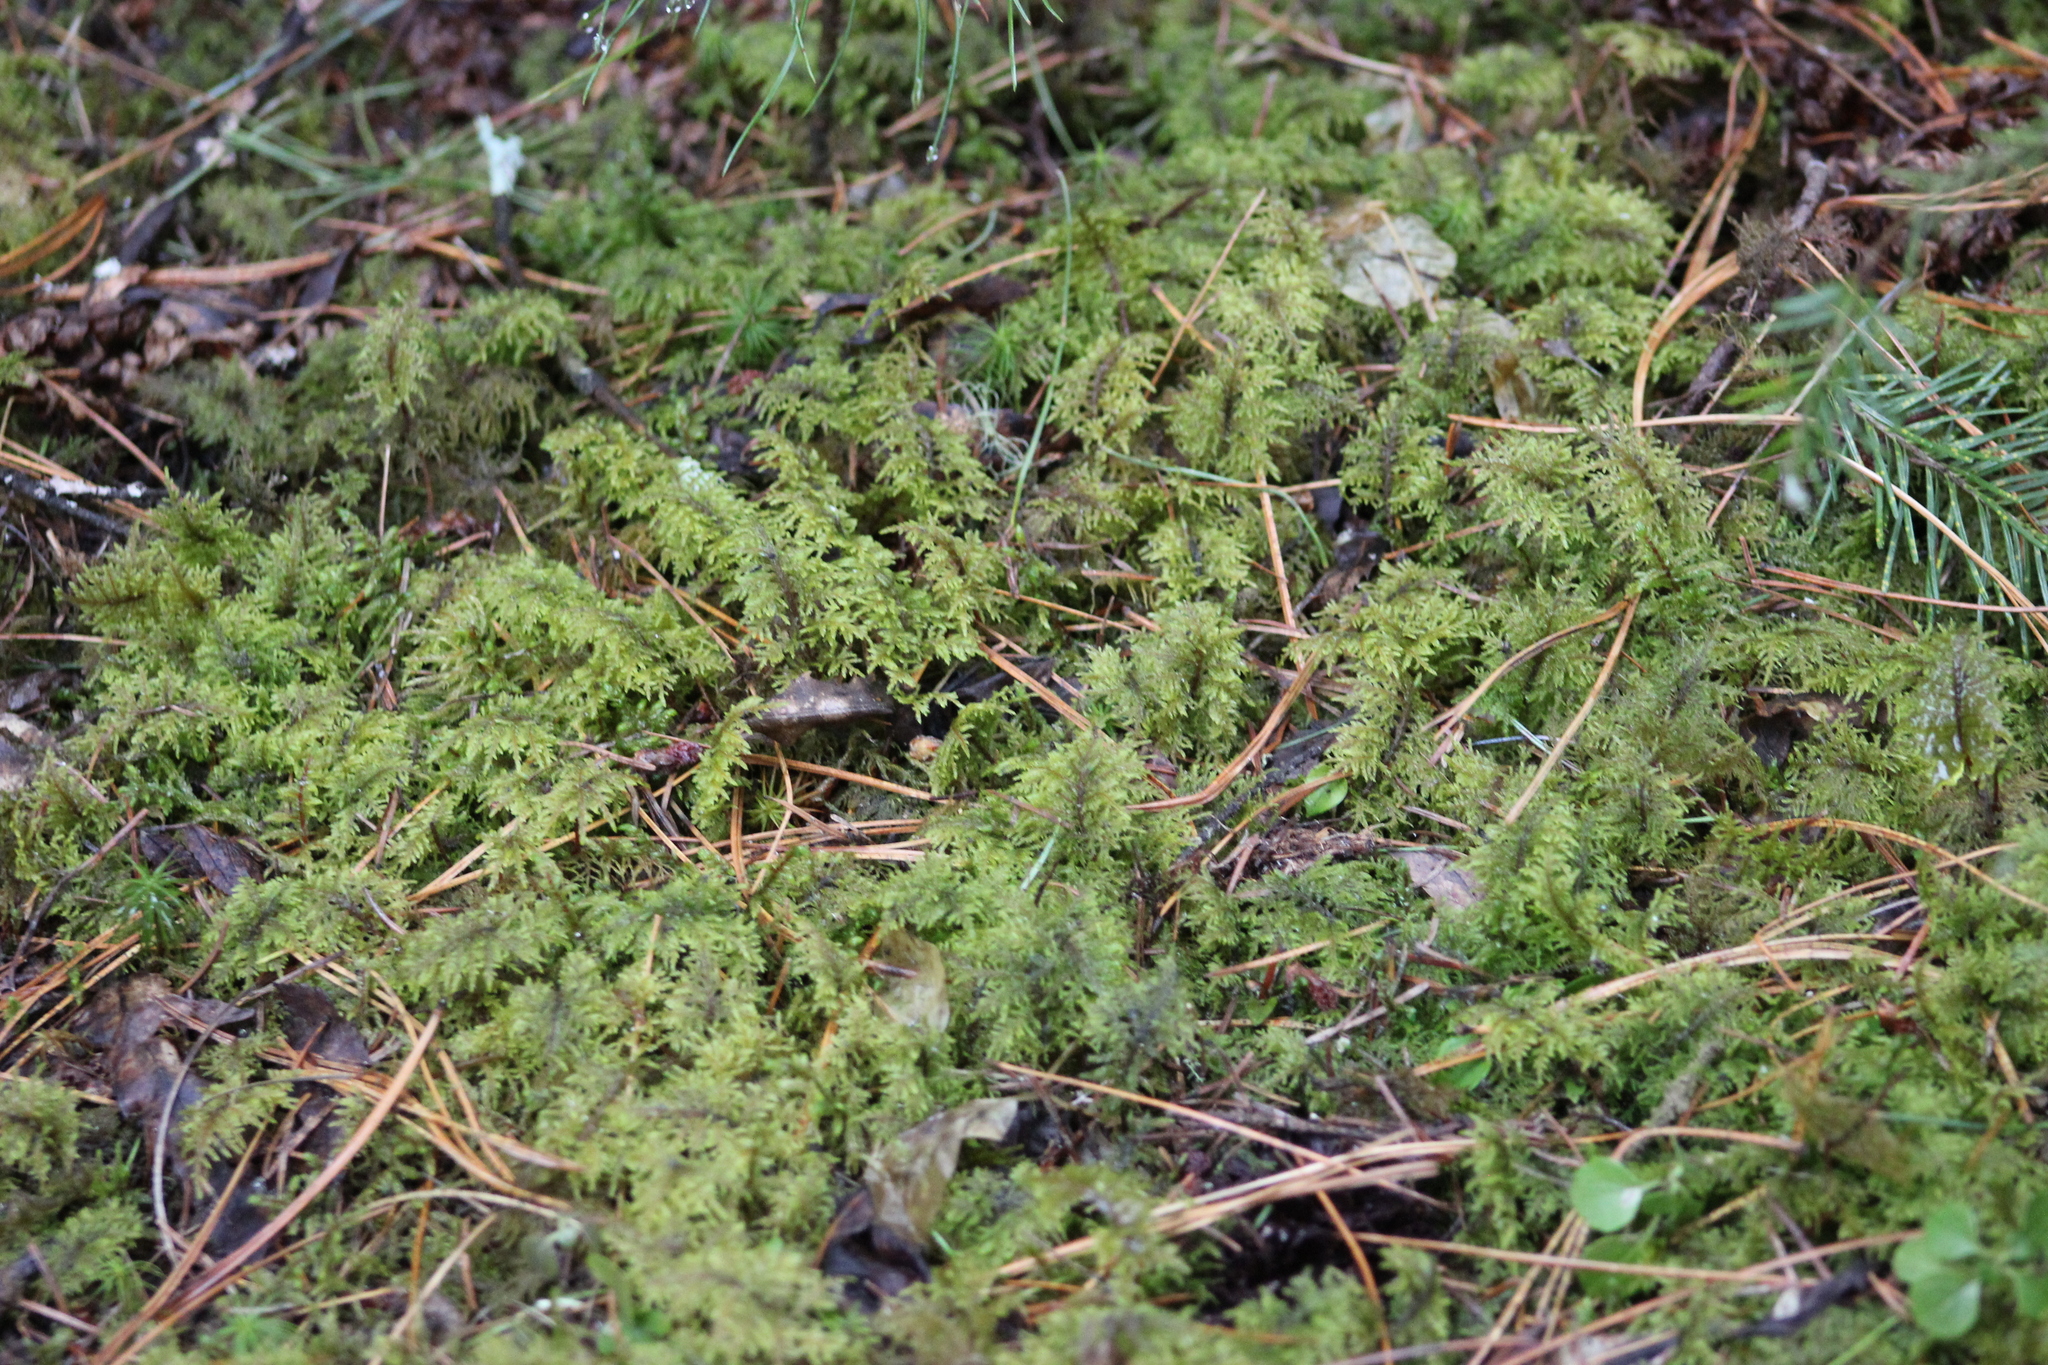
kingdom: Plantae
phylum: Bryophyta
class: Bryopsida
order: Hypnales
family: Hylocomiaceae
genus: Hylocomium
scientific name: Hylocomium splendens
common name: Stairstep moss
